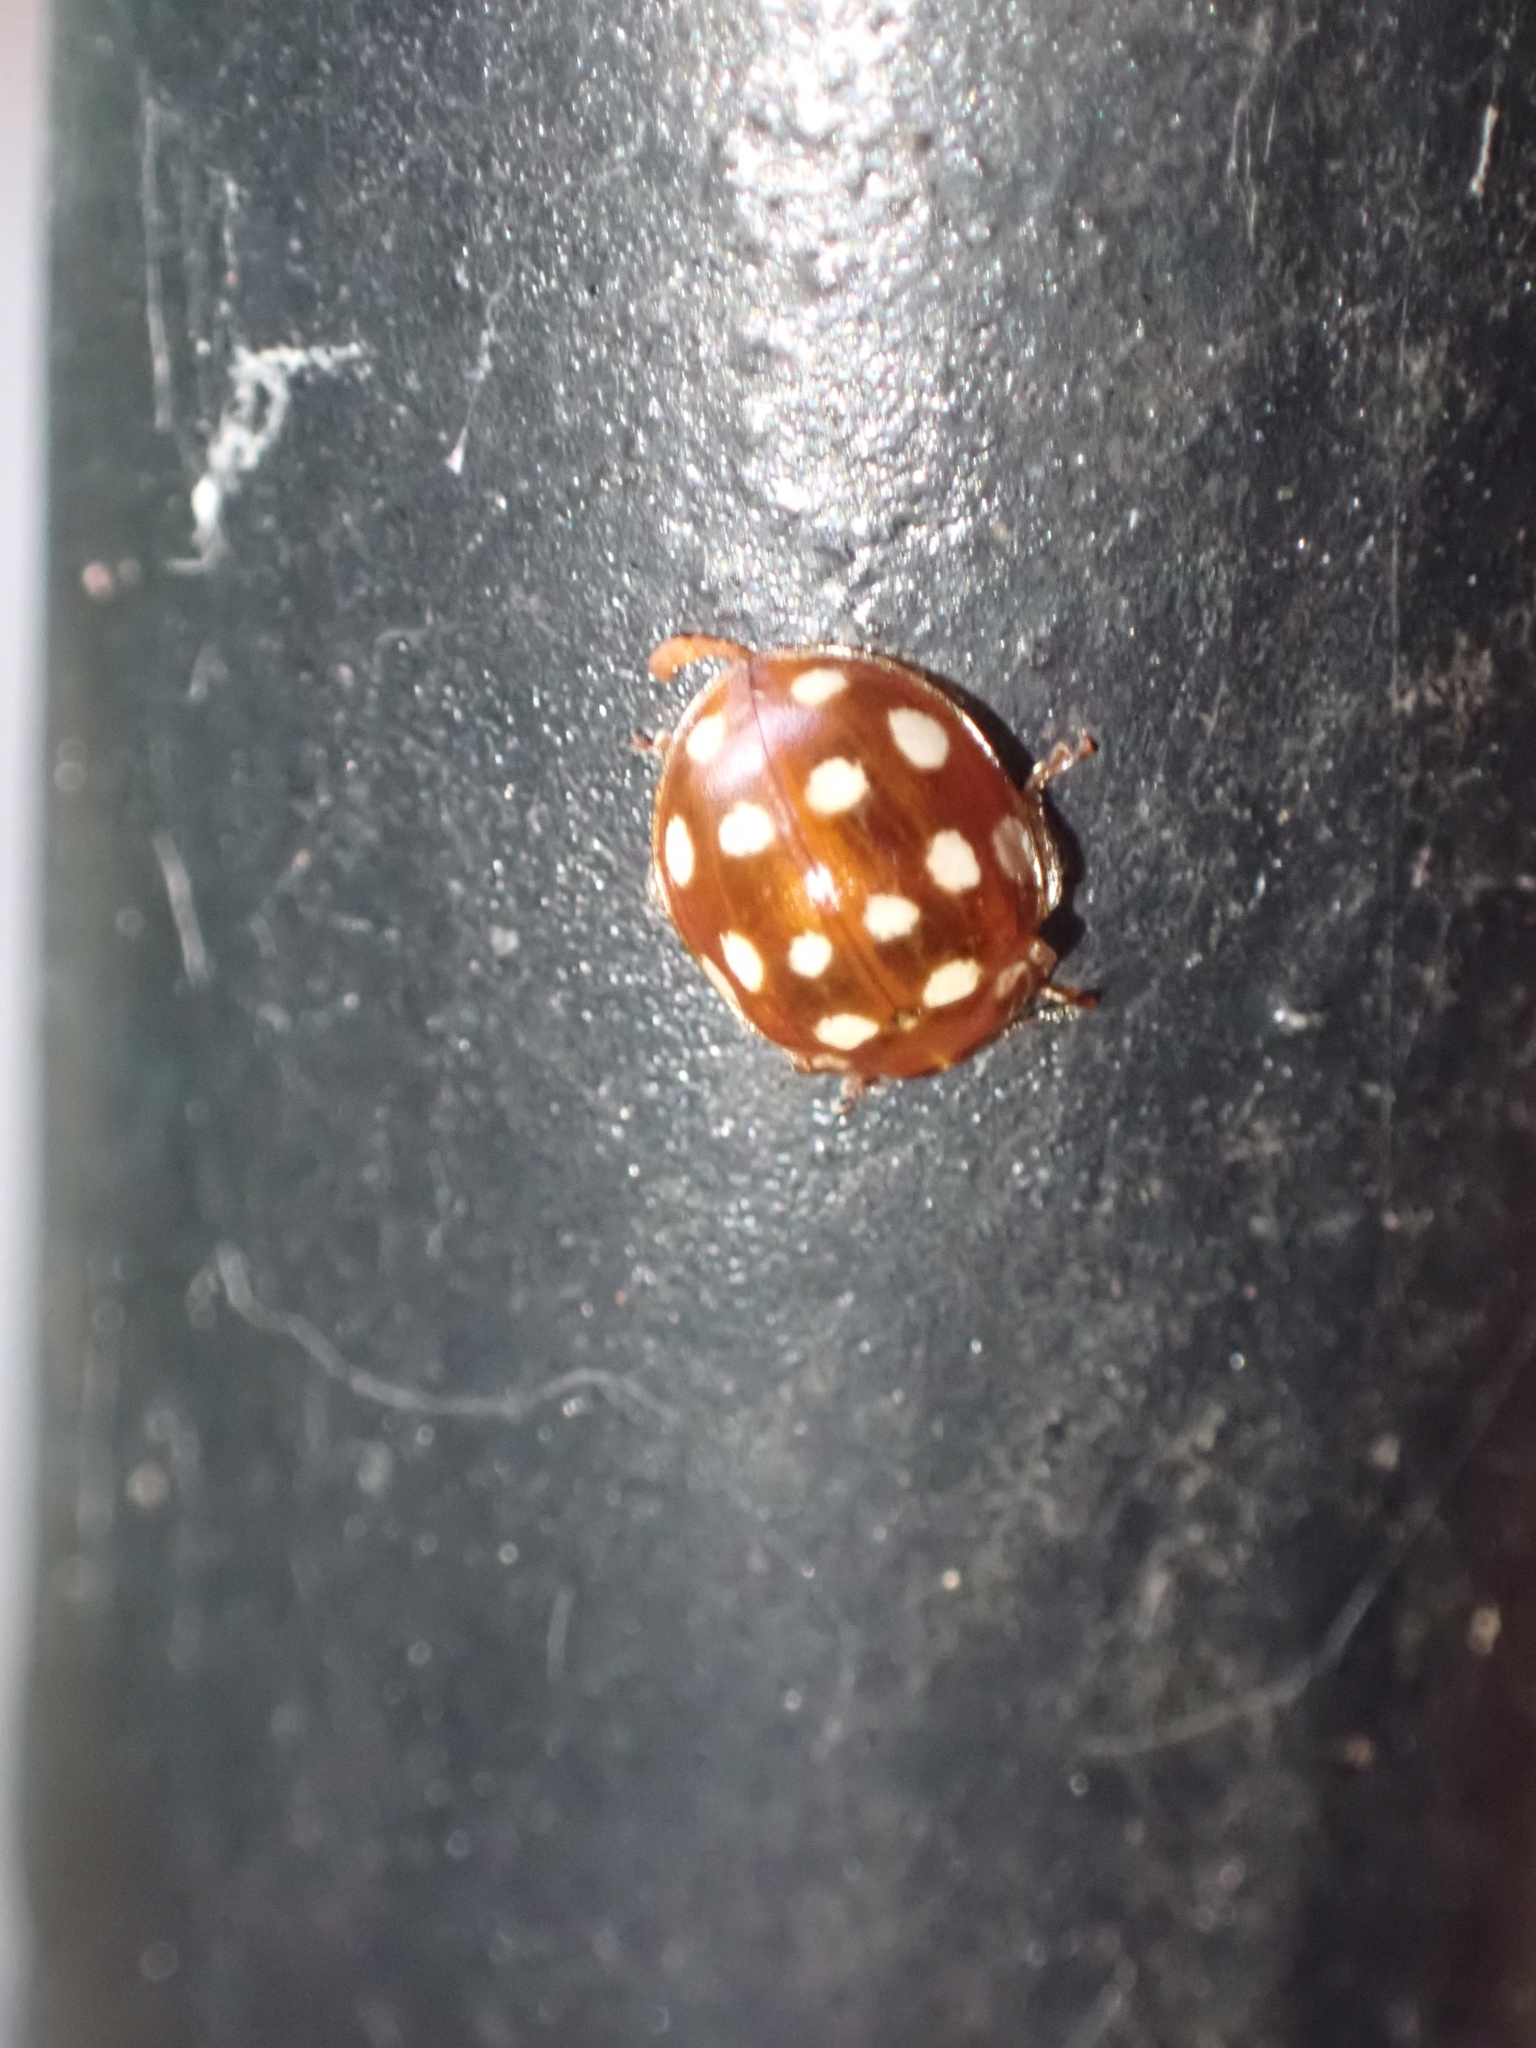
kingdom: Animalia
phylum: Arthropoda
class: Insecta
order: Coleoptera
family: Coccinellidae
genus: Calvia
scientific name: Calvia quatuordecimguttata
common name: Cream-spot ladybird
